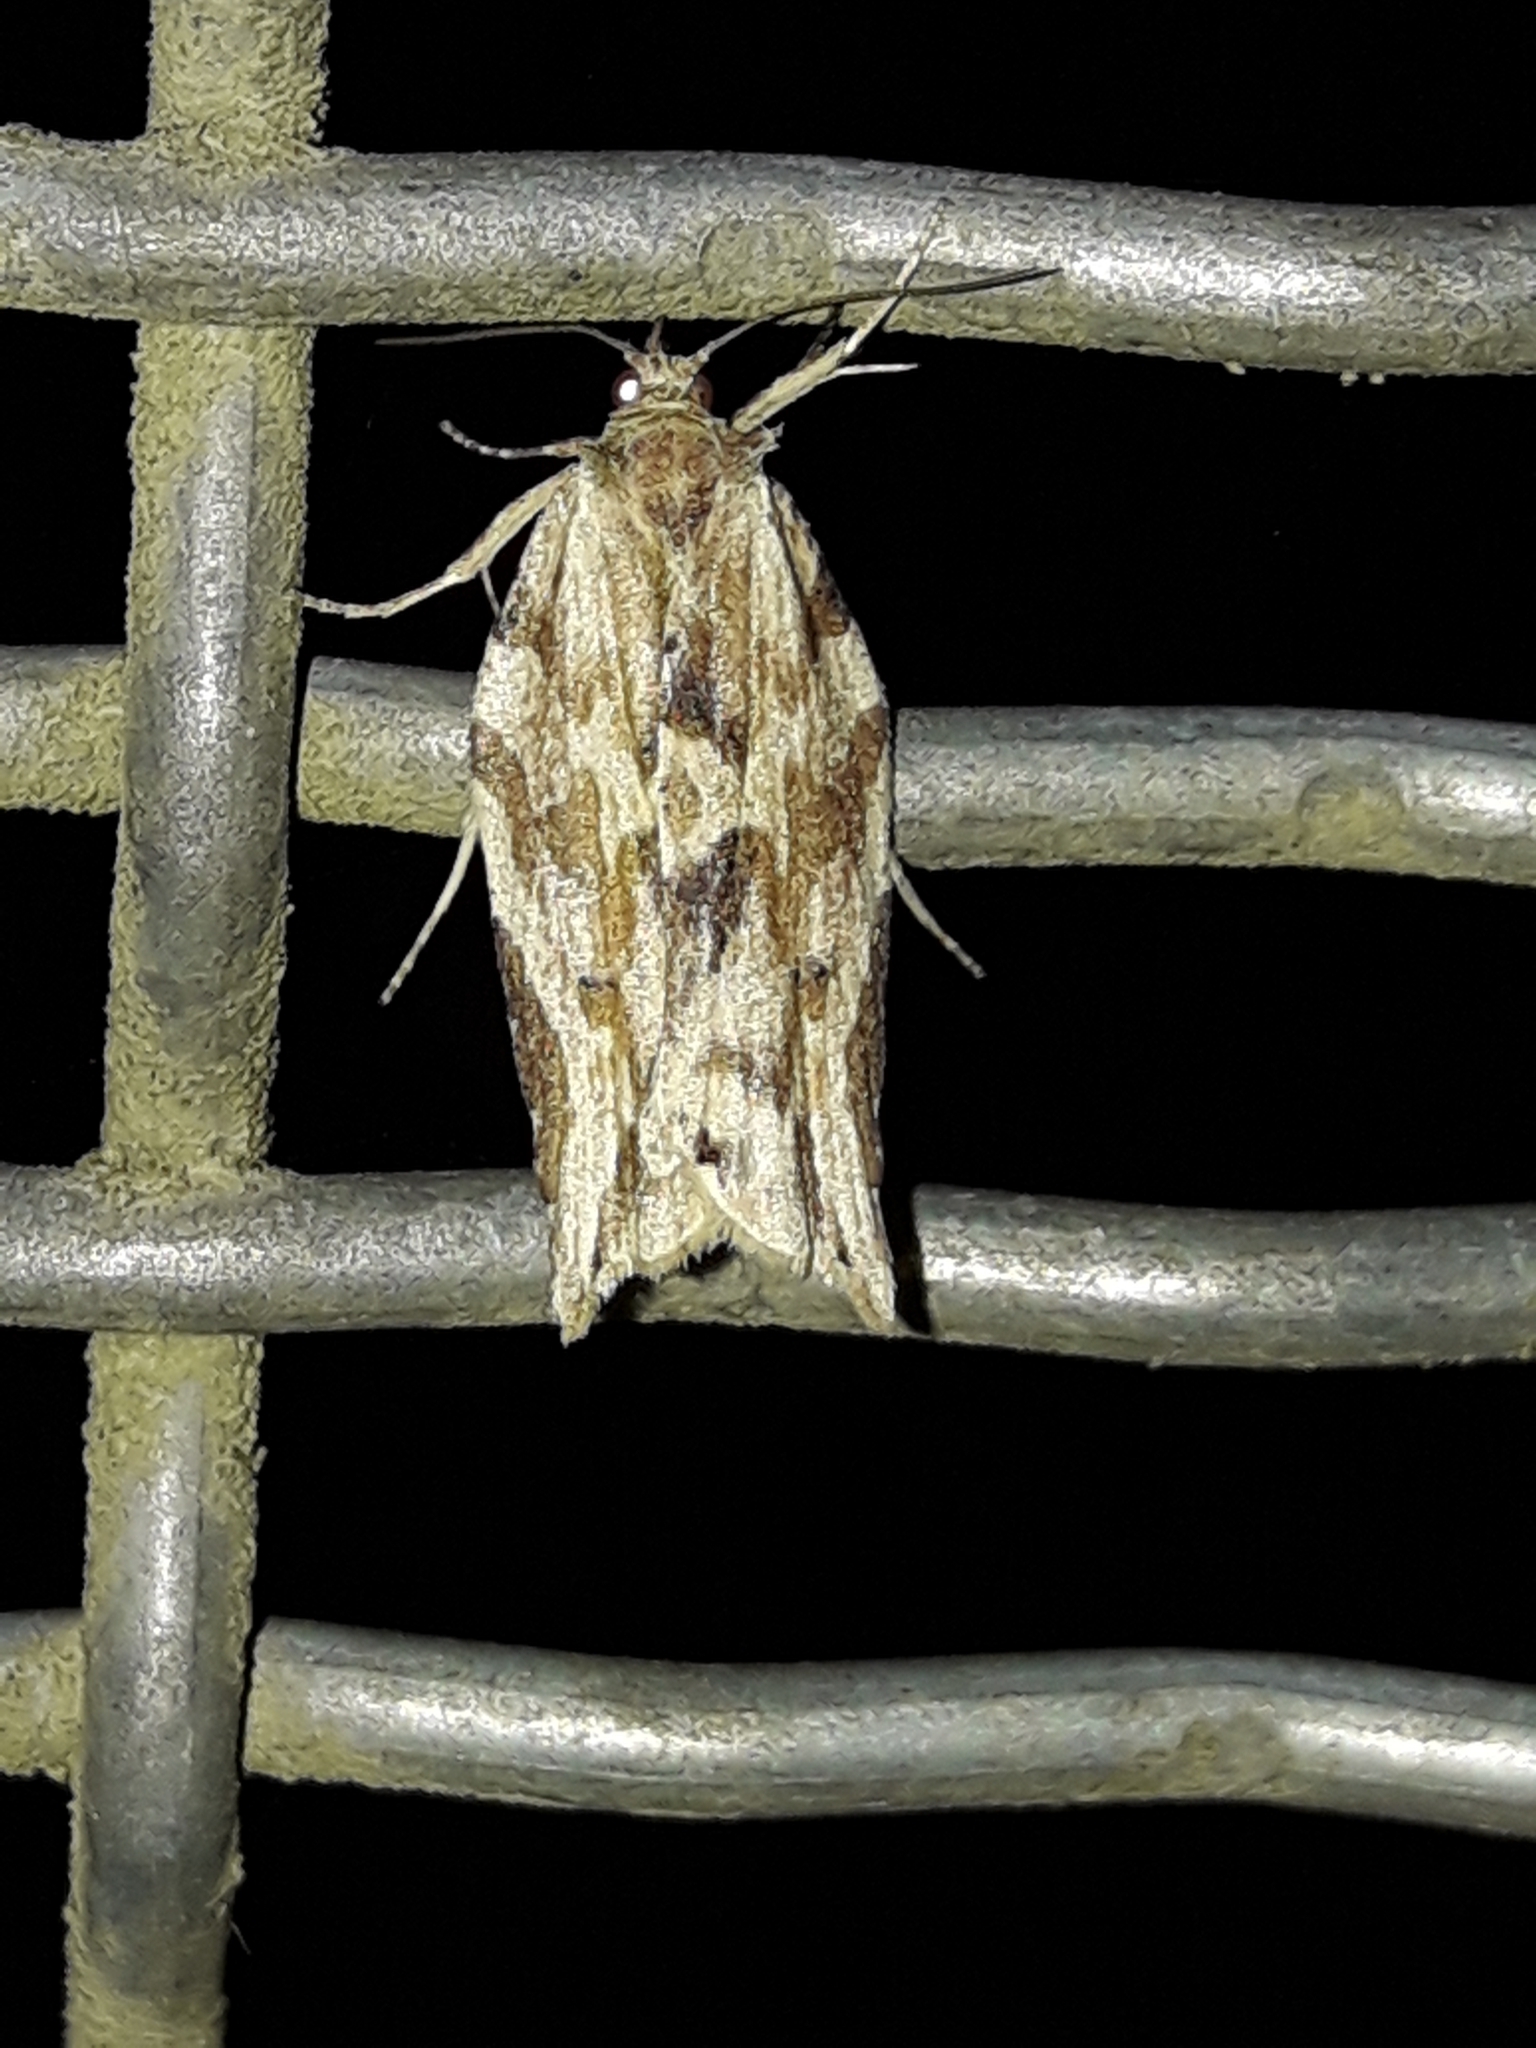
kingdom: Animalia
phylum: Arthropoda
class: Insecta
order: Lepidoptera
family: Tortricidae
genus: Epalxiphora
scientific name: Epalxiphora axenana
